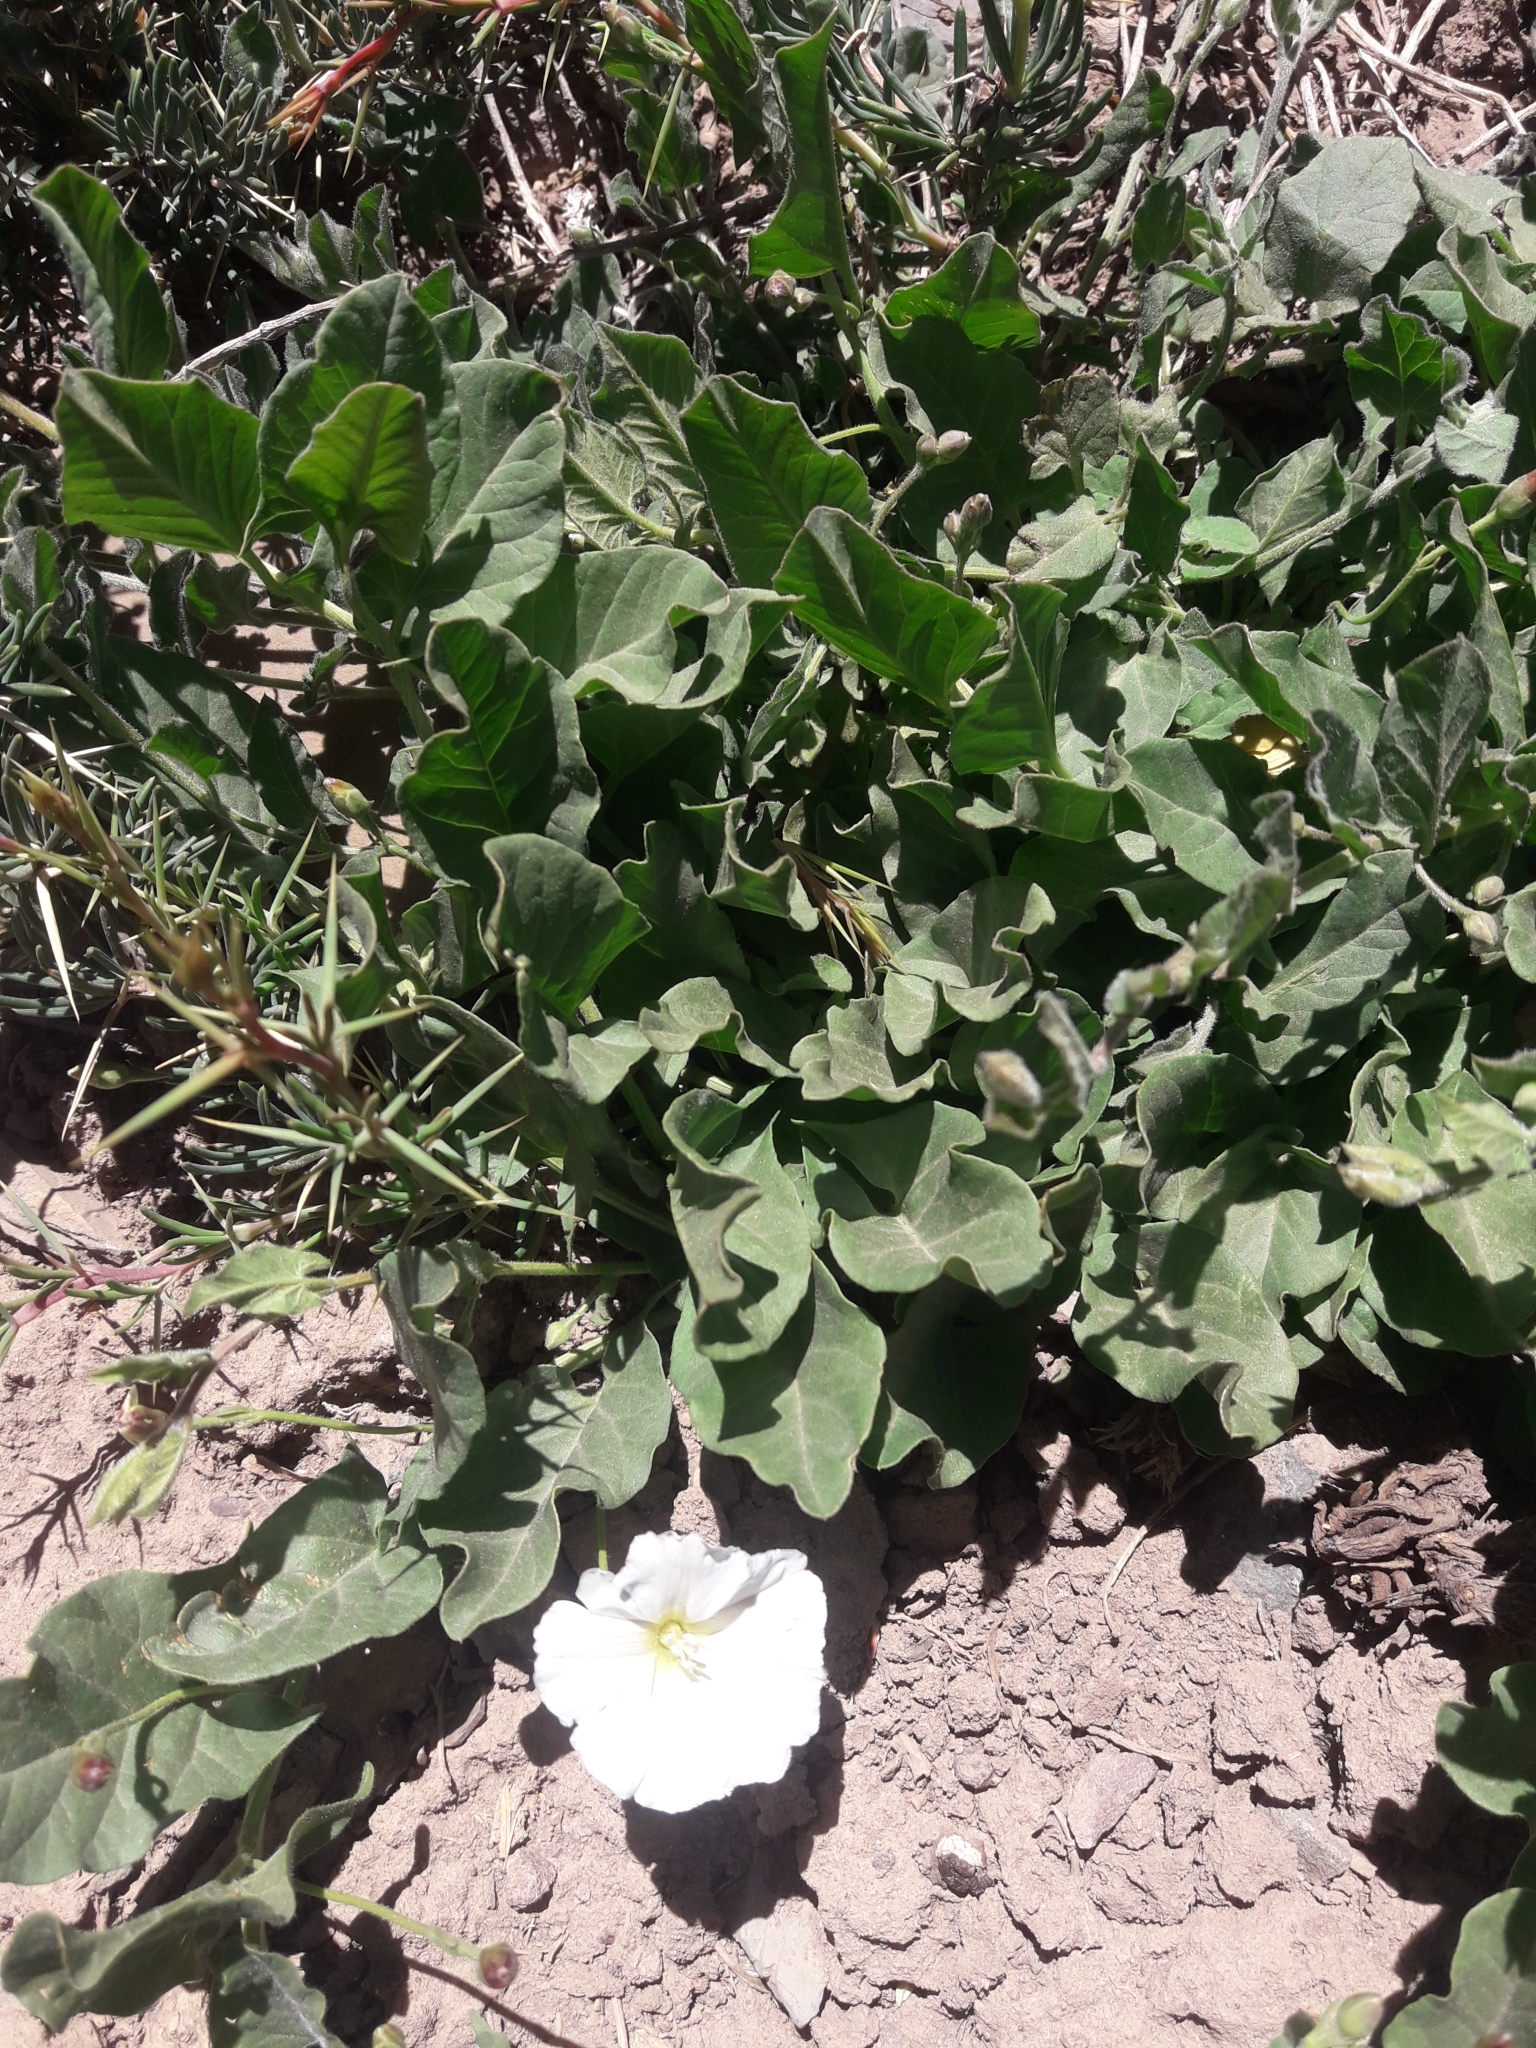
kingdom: Plantae
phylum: Tracheophyta
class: Magnoliopsida
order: Solanales
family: Convolvulaceae
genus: Convolvulus
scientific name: Convolvulus arvensis
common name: Field bindweed
